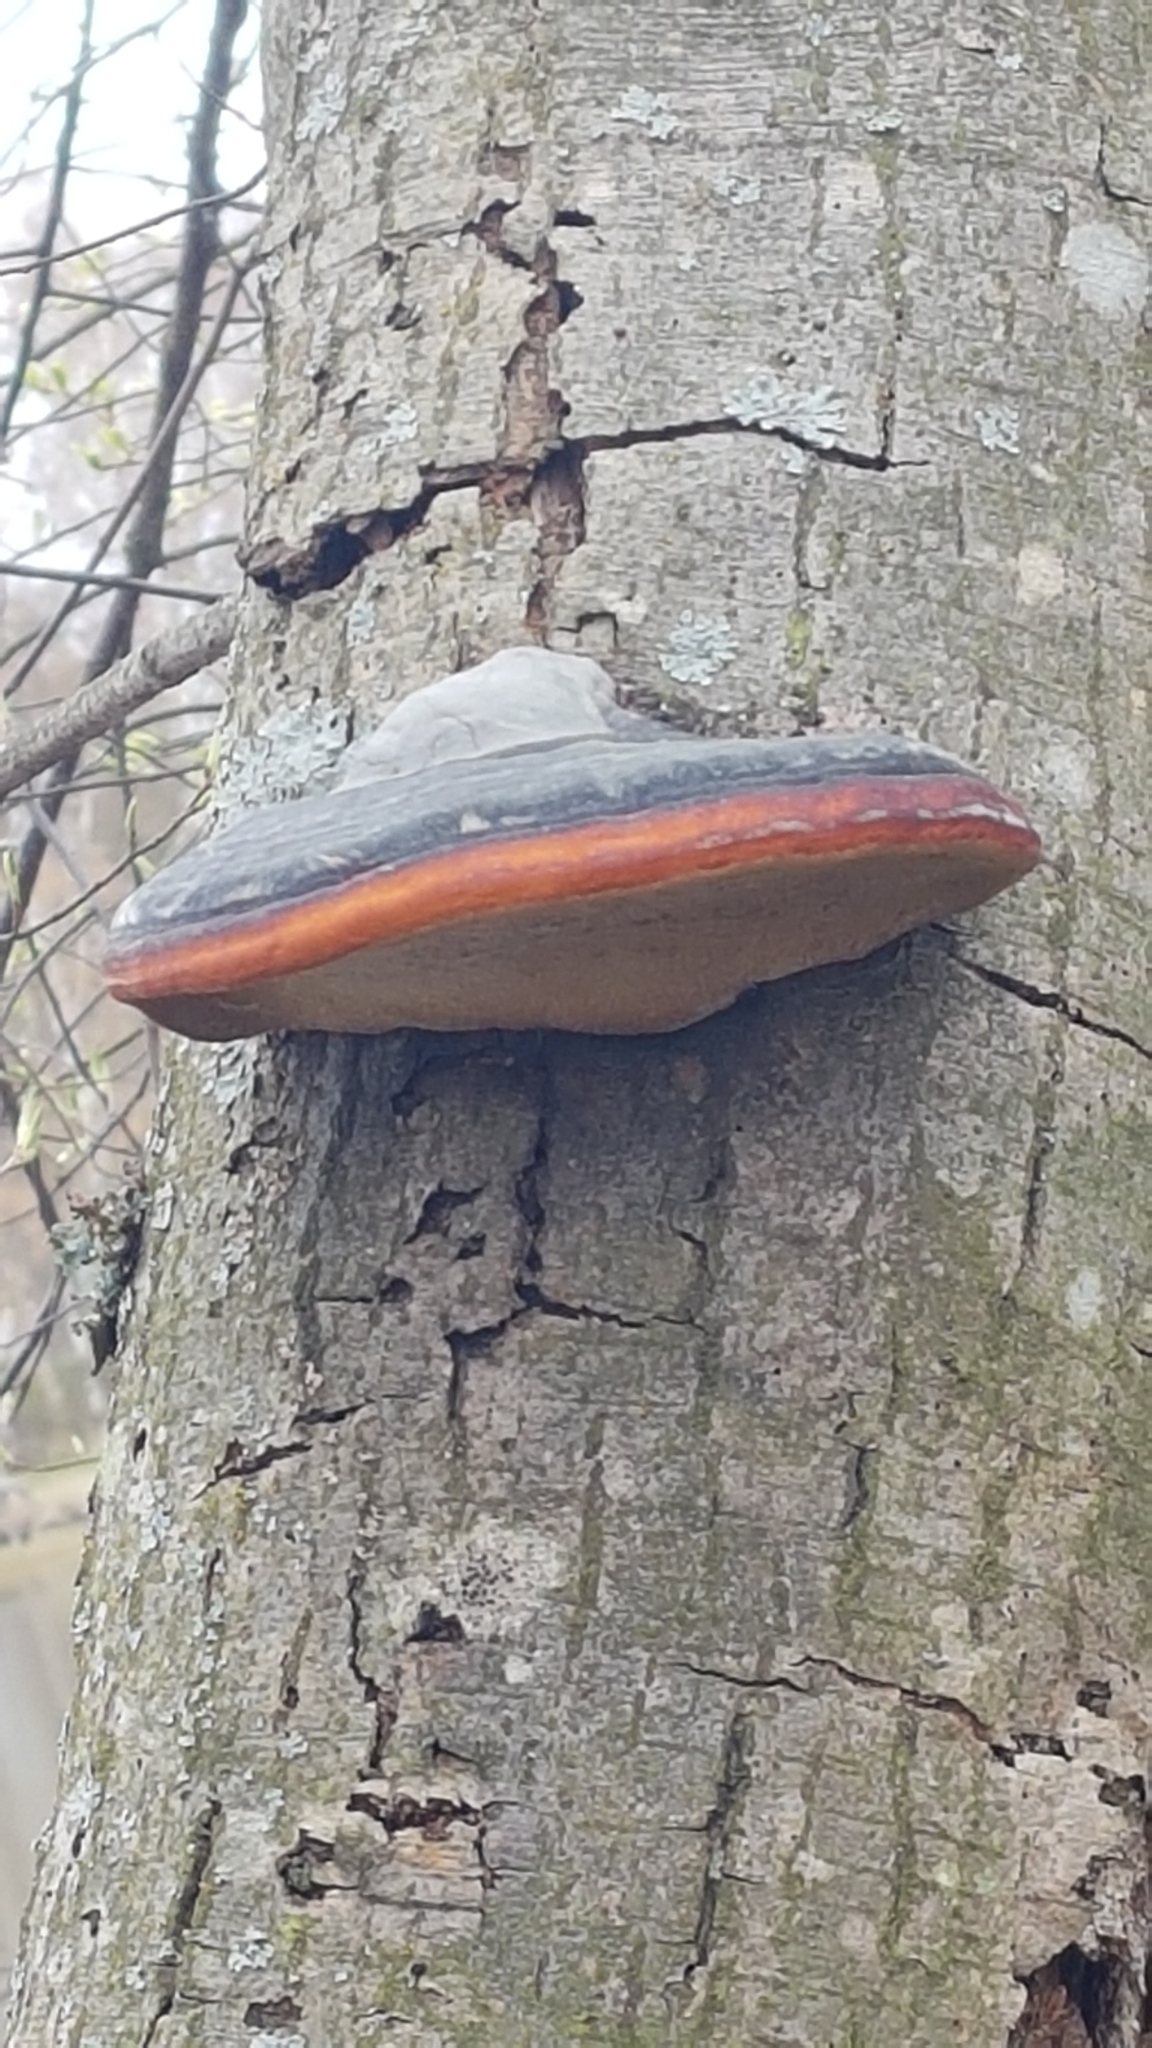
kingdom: Fungi
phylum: Basidiomycota
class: Agaricomycetes
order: Polyporales
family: Fomitopsidaceae
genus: Fomitopsis
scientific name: Fomitopsis pinicola
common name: Red-belted bracket
